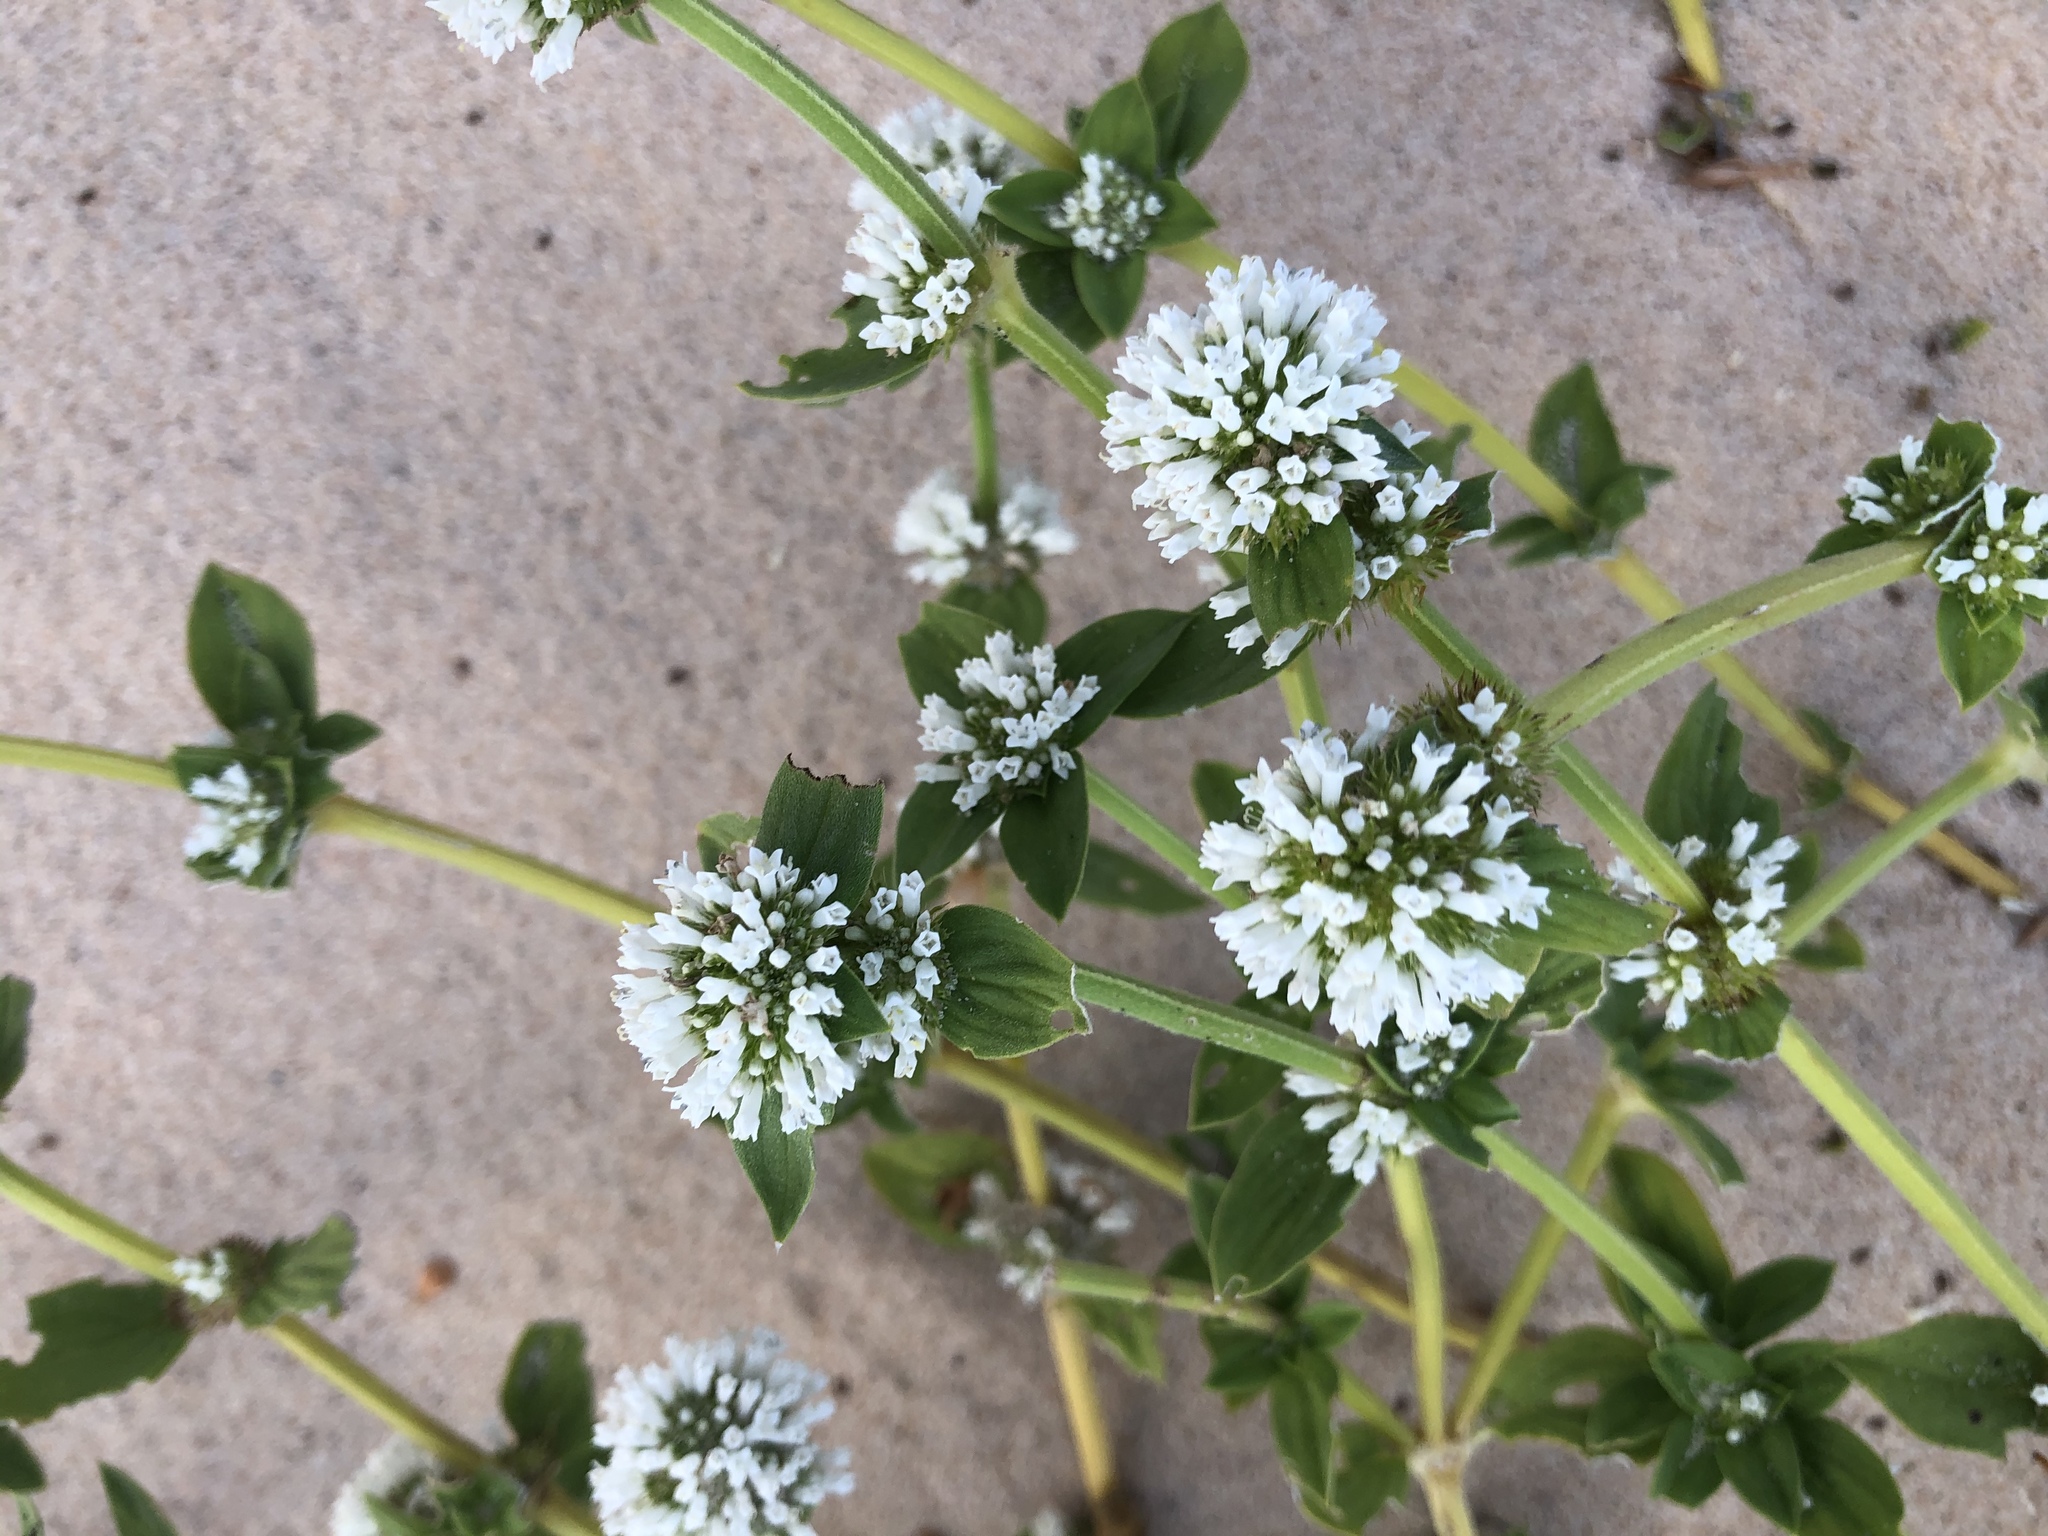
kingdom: Plantae
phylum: Tracheophyta
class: Magnoliopsida
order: Gentianales
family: Rubiaceae
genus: Spermacoce
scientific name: Spermacoce verticillata
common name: Shrubby false buttonweed
